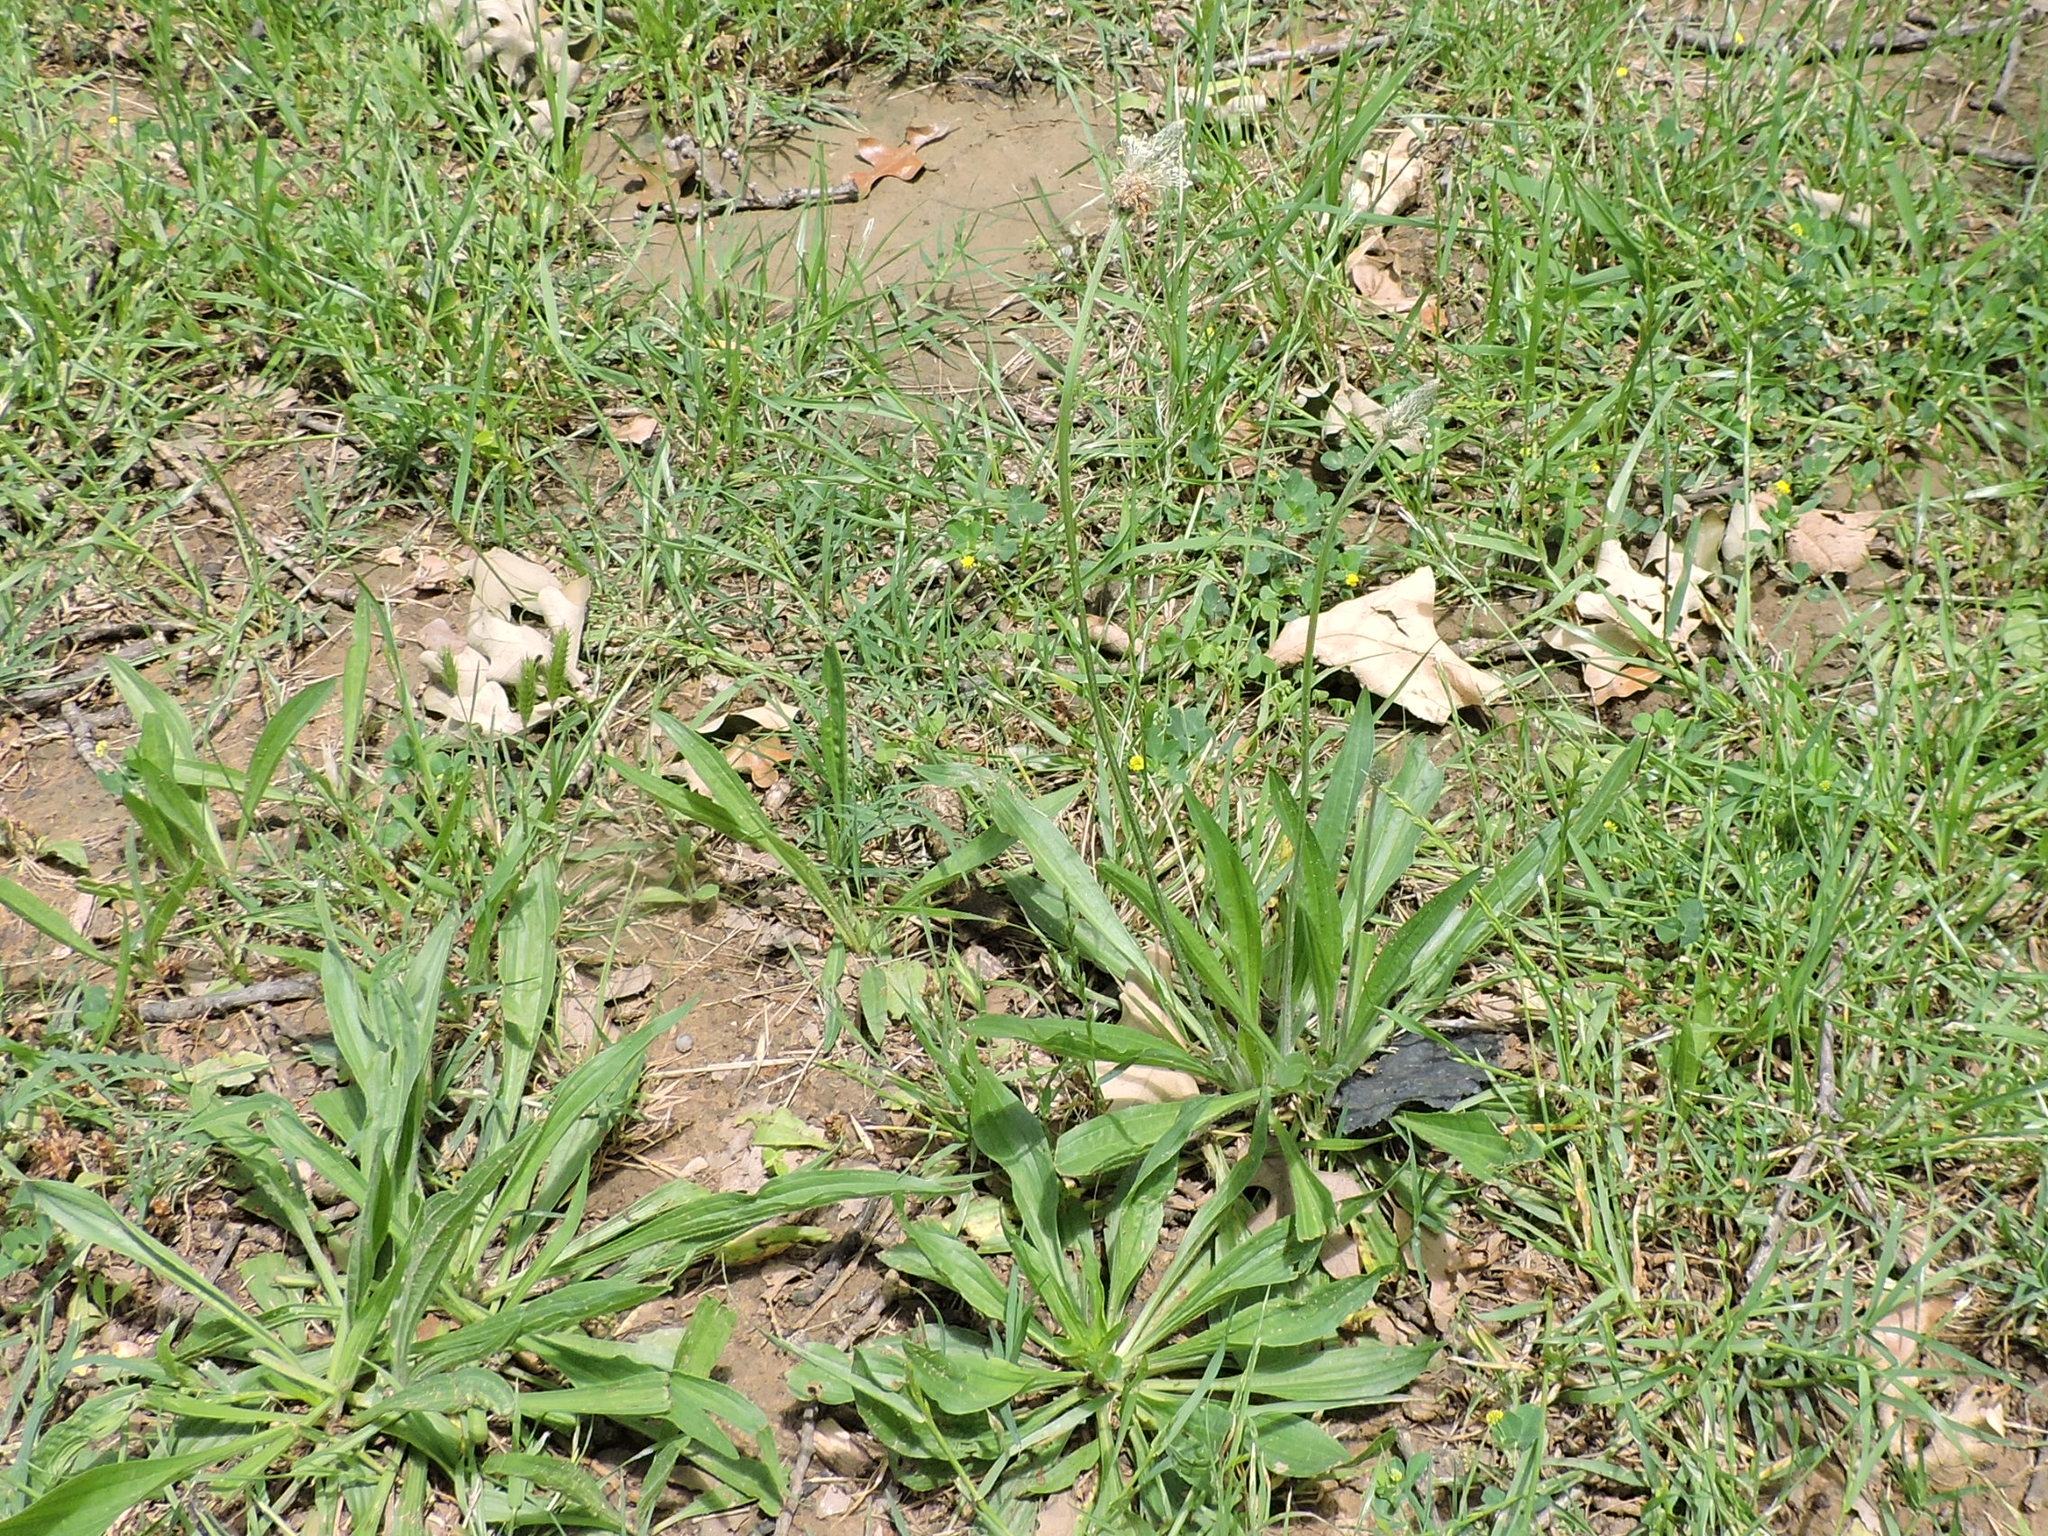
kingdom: Plantae
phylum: Tracheophyta
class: Magnoliopsida
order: Lamiales
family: Plantaginaceae
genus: Plantago
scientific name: Plantago lanceolata
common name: Ribwort plantain
